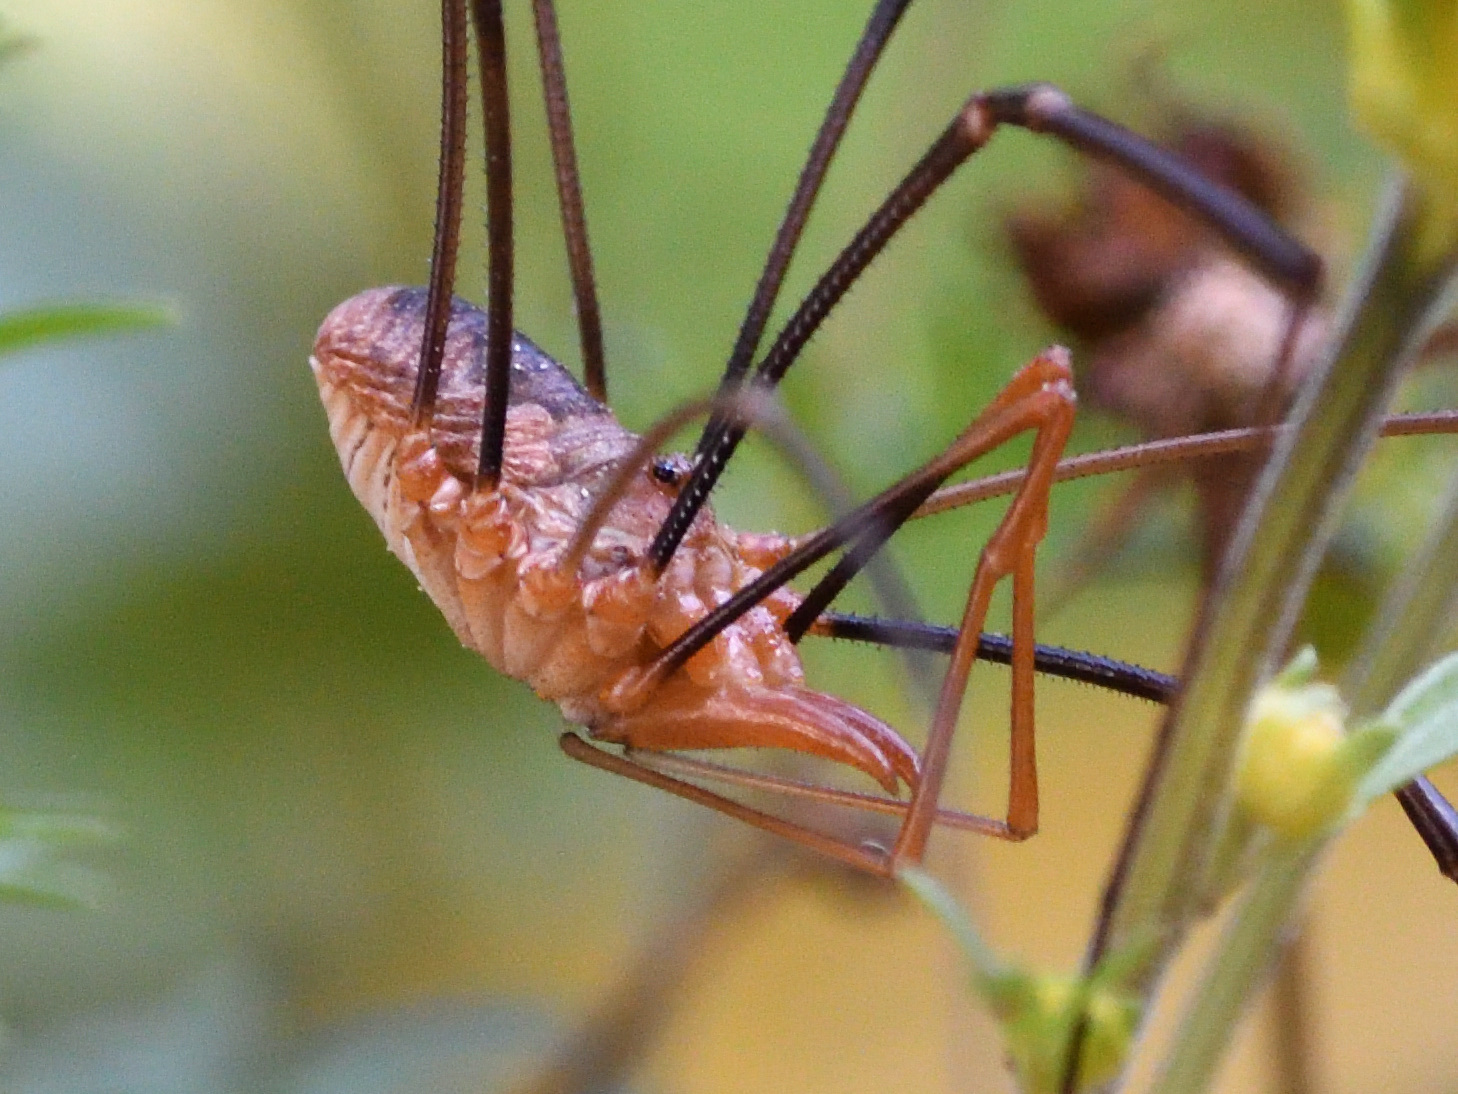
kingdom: Animalia
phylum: Arthropoda
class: Arachnida
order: Opiliones
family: Phalangiidae
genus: Phalangium
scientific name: Phalangium opilio
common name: Daddy longleg
